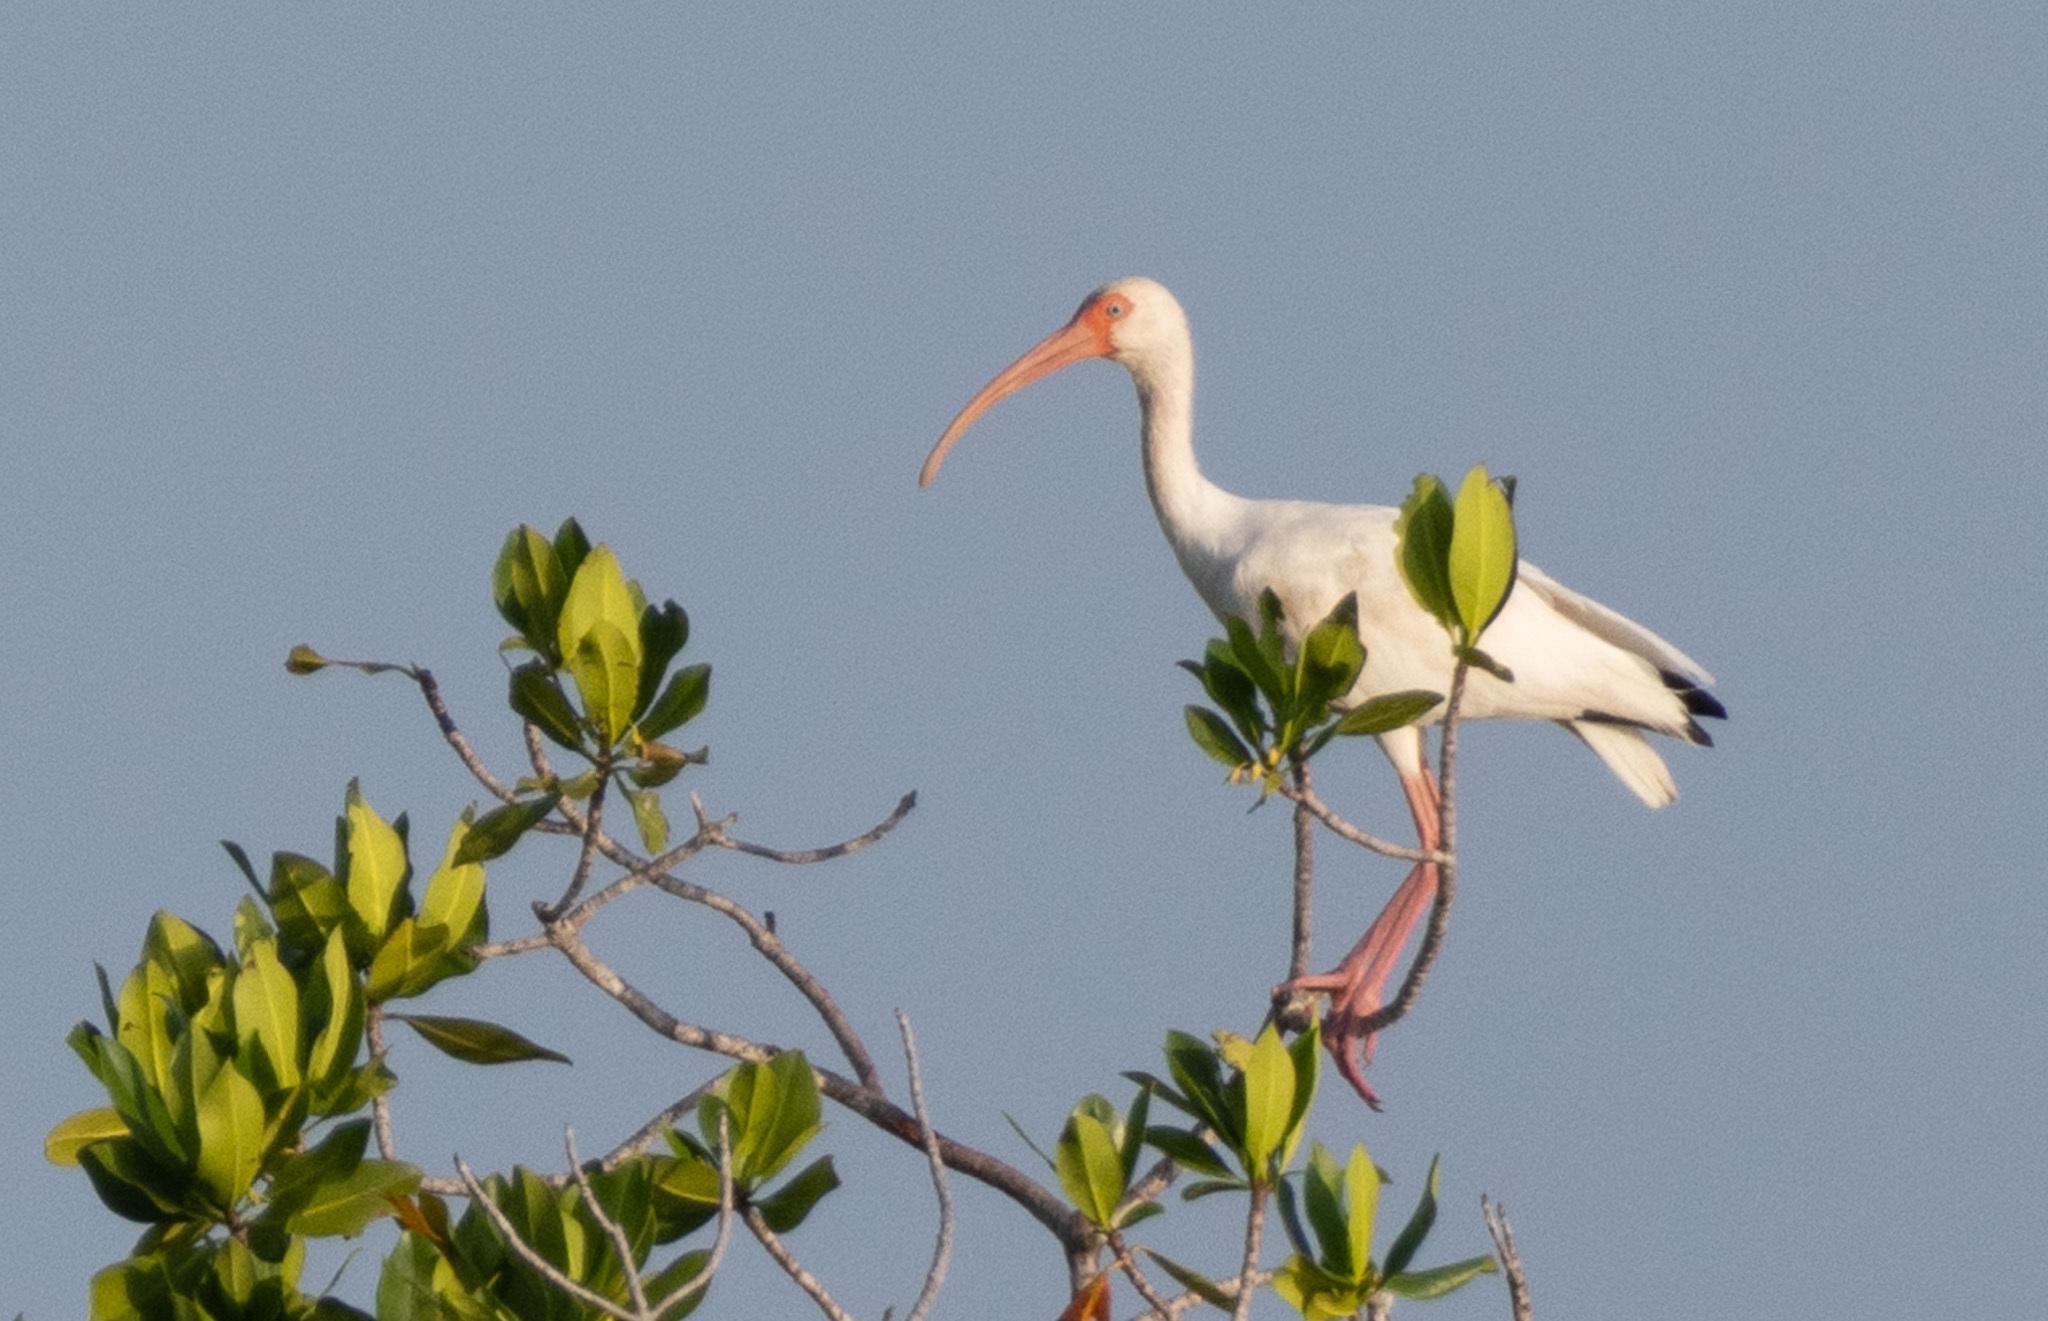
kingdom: Animalia
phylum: Chordata
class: Aves
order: Pelecaniformes
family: Threskiornithidae
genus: Eudocimus
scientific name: Eudocimus albus
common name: White ibis
